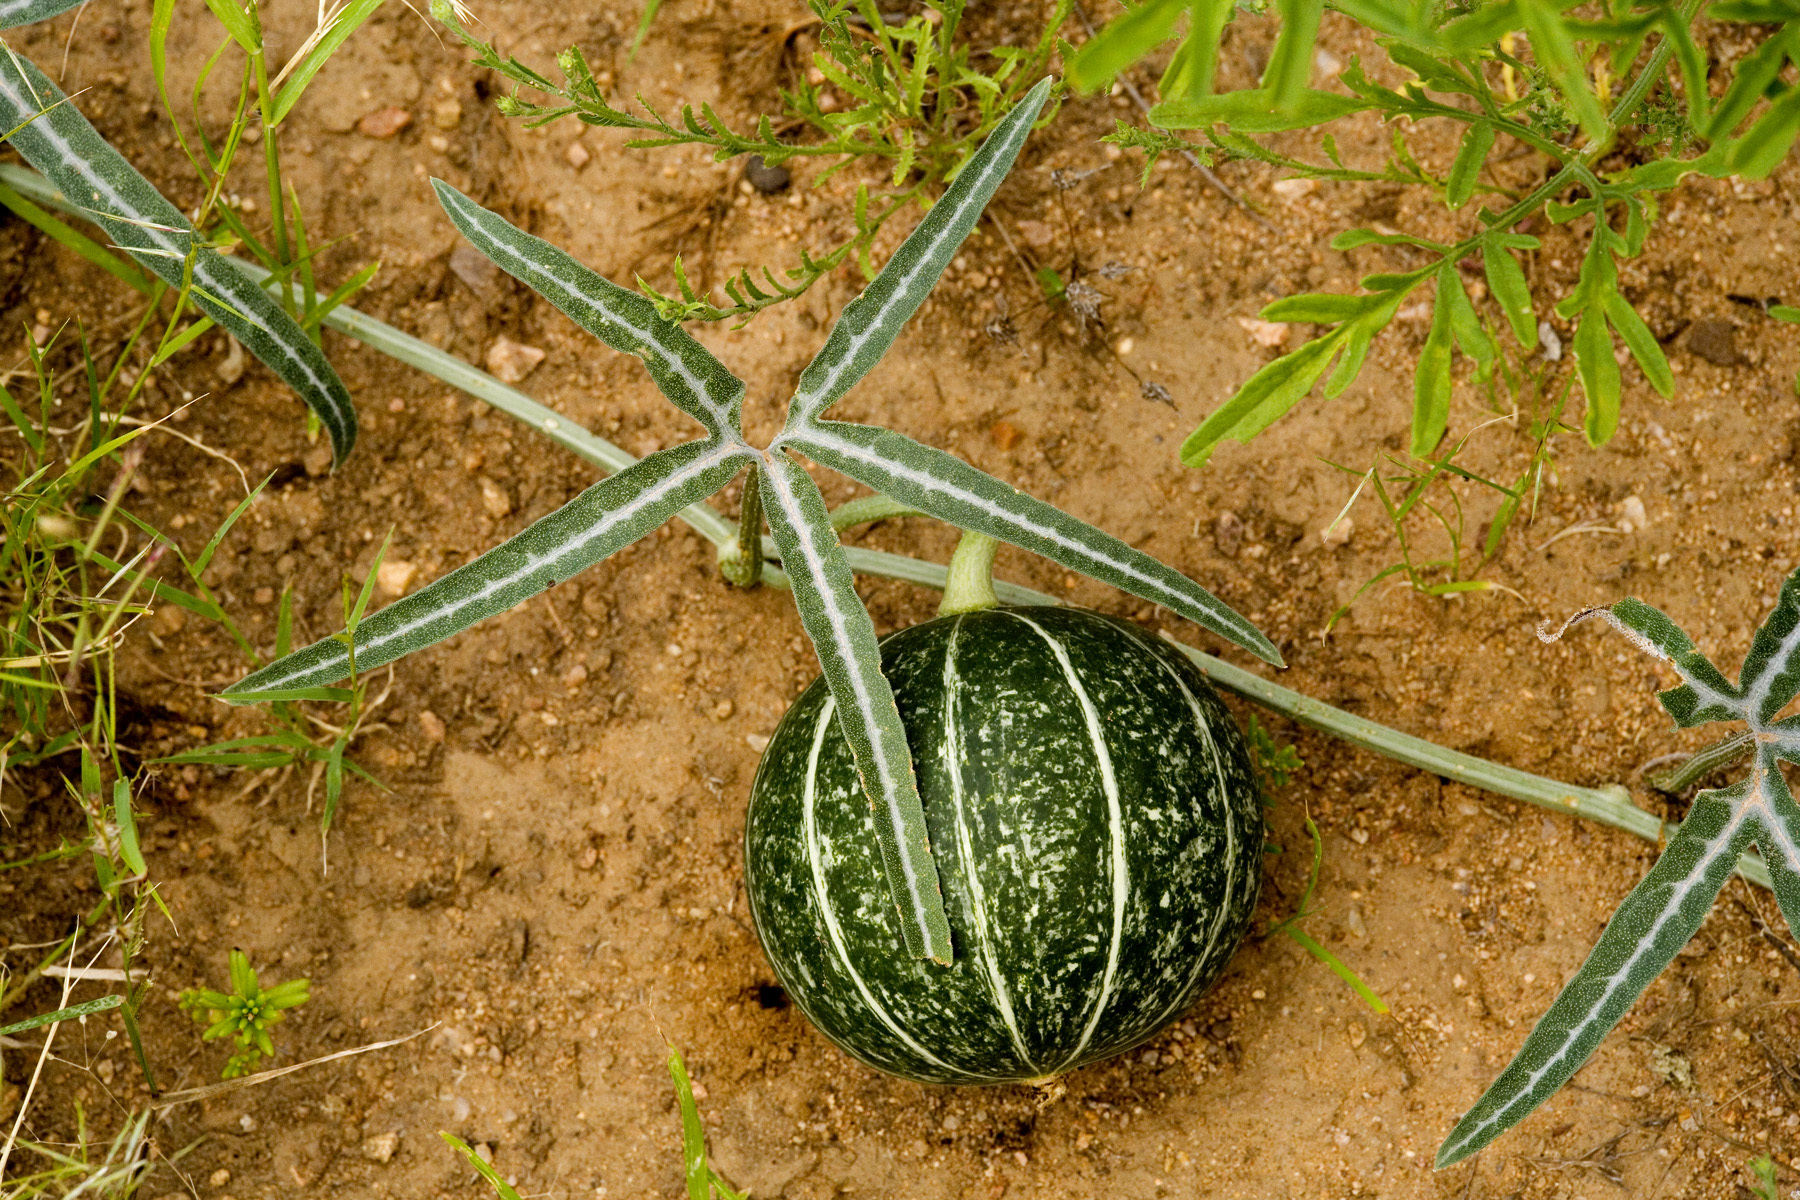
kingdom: Plantae
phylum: Tracheophyta
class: Magnoliopsida
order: Cucurbitales
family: Cucurbitaceae
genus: Cucurbita
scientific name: Cucurbita digitata
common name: Finger-leaf gourd
